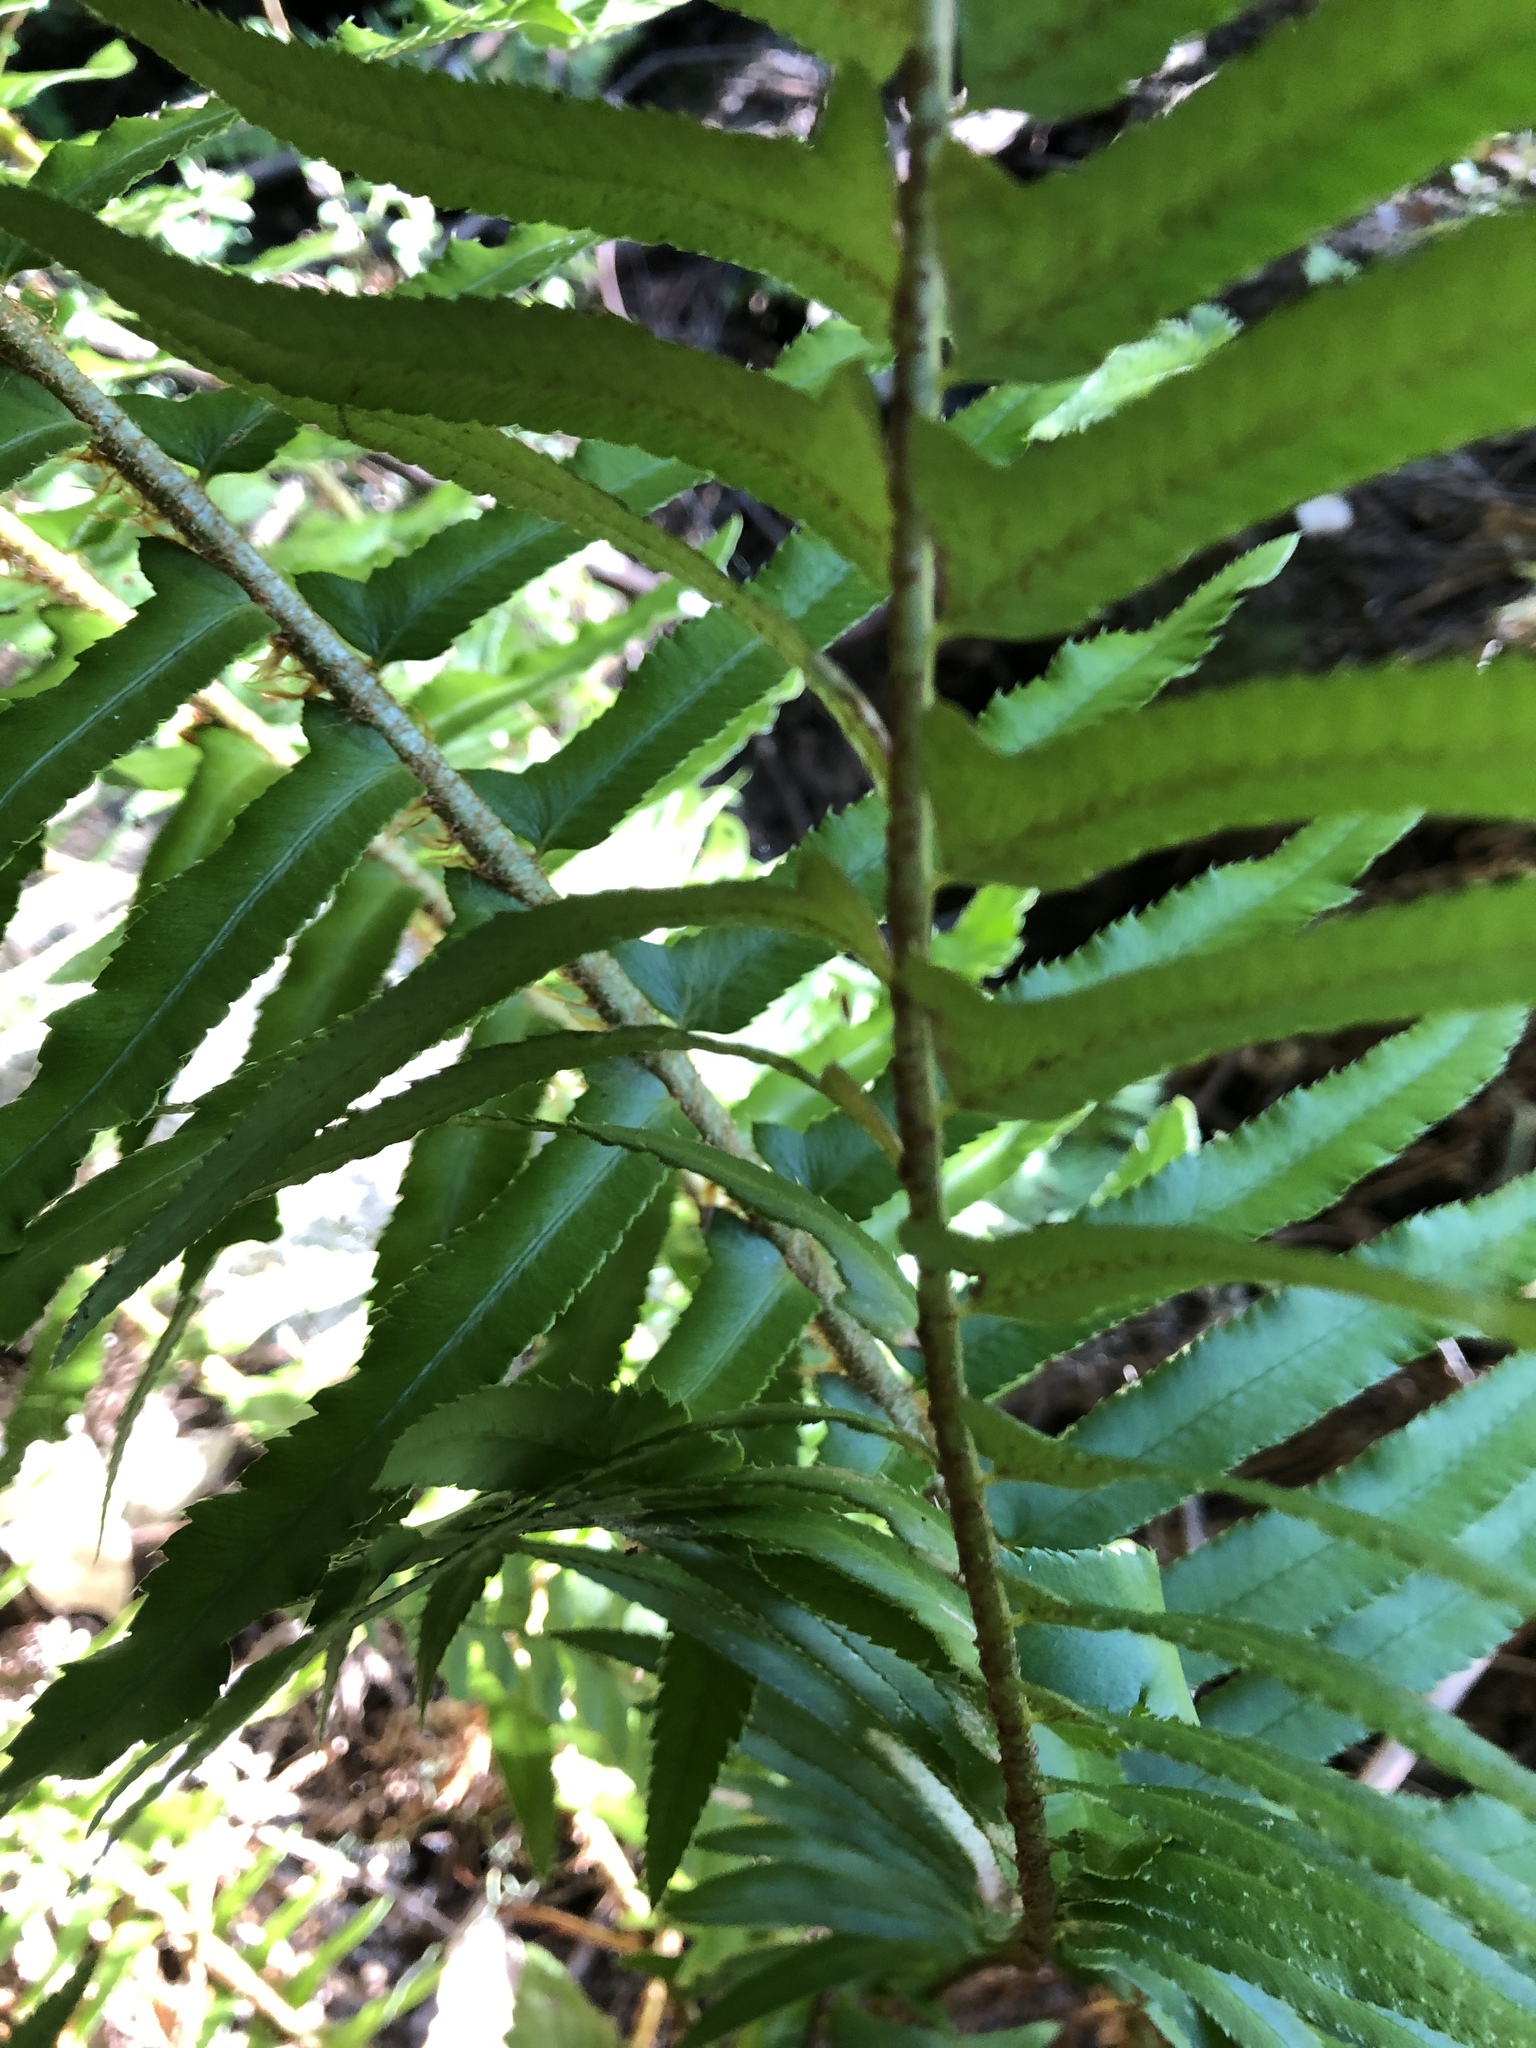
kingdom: Plantae
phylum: Tracheophyta
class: Polypodiopsida
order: Polypodiales
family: Dryopteridaceae
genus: Polystichum
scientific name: Polystichum munitum
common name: Western sword-fern
